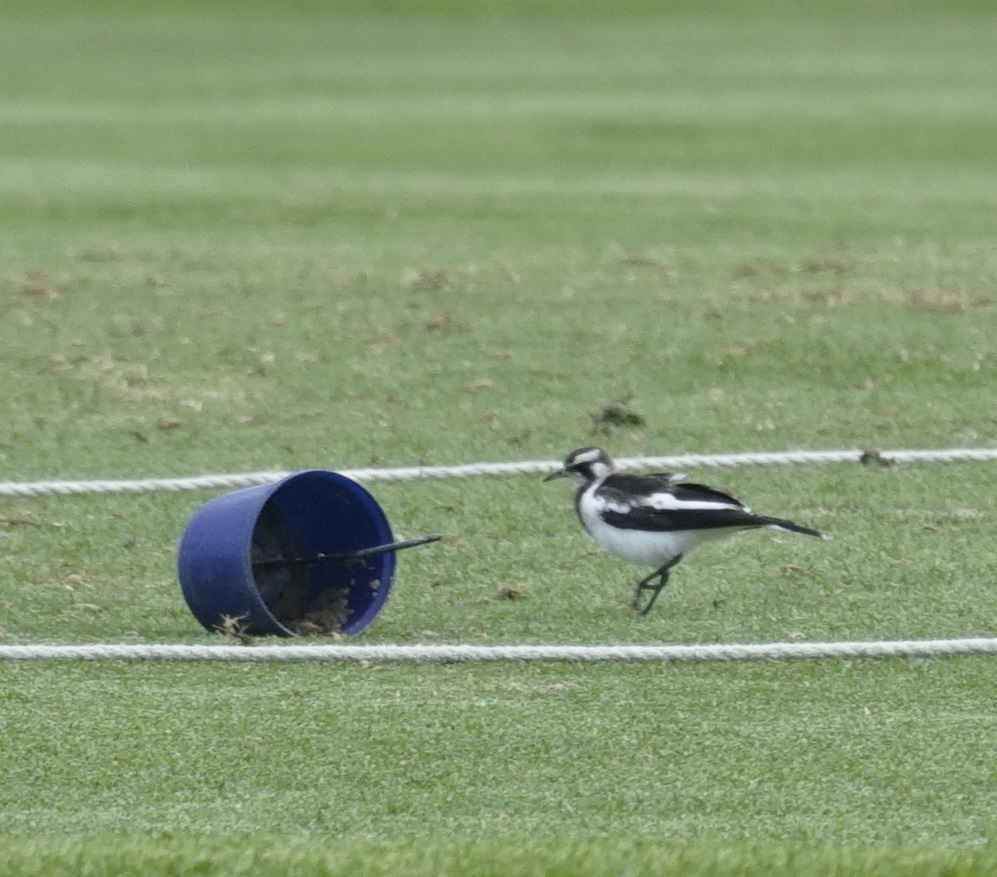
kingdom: Animalia
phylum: Chordata
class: Aves
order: Passeriformes
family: Monarchidae
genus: Grallina
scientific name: Grallina cyanoleuca
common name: Magpie-lark
